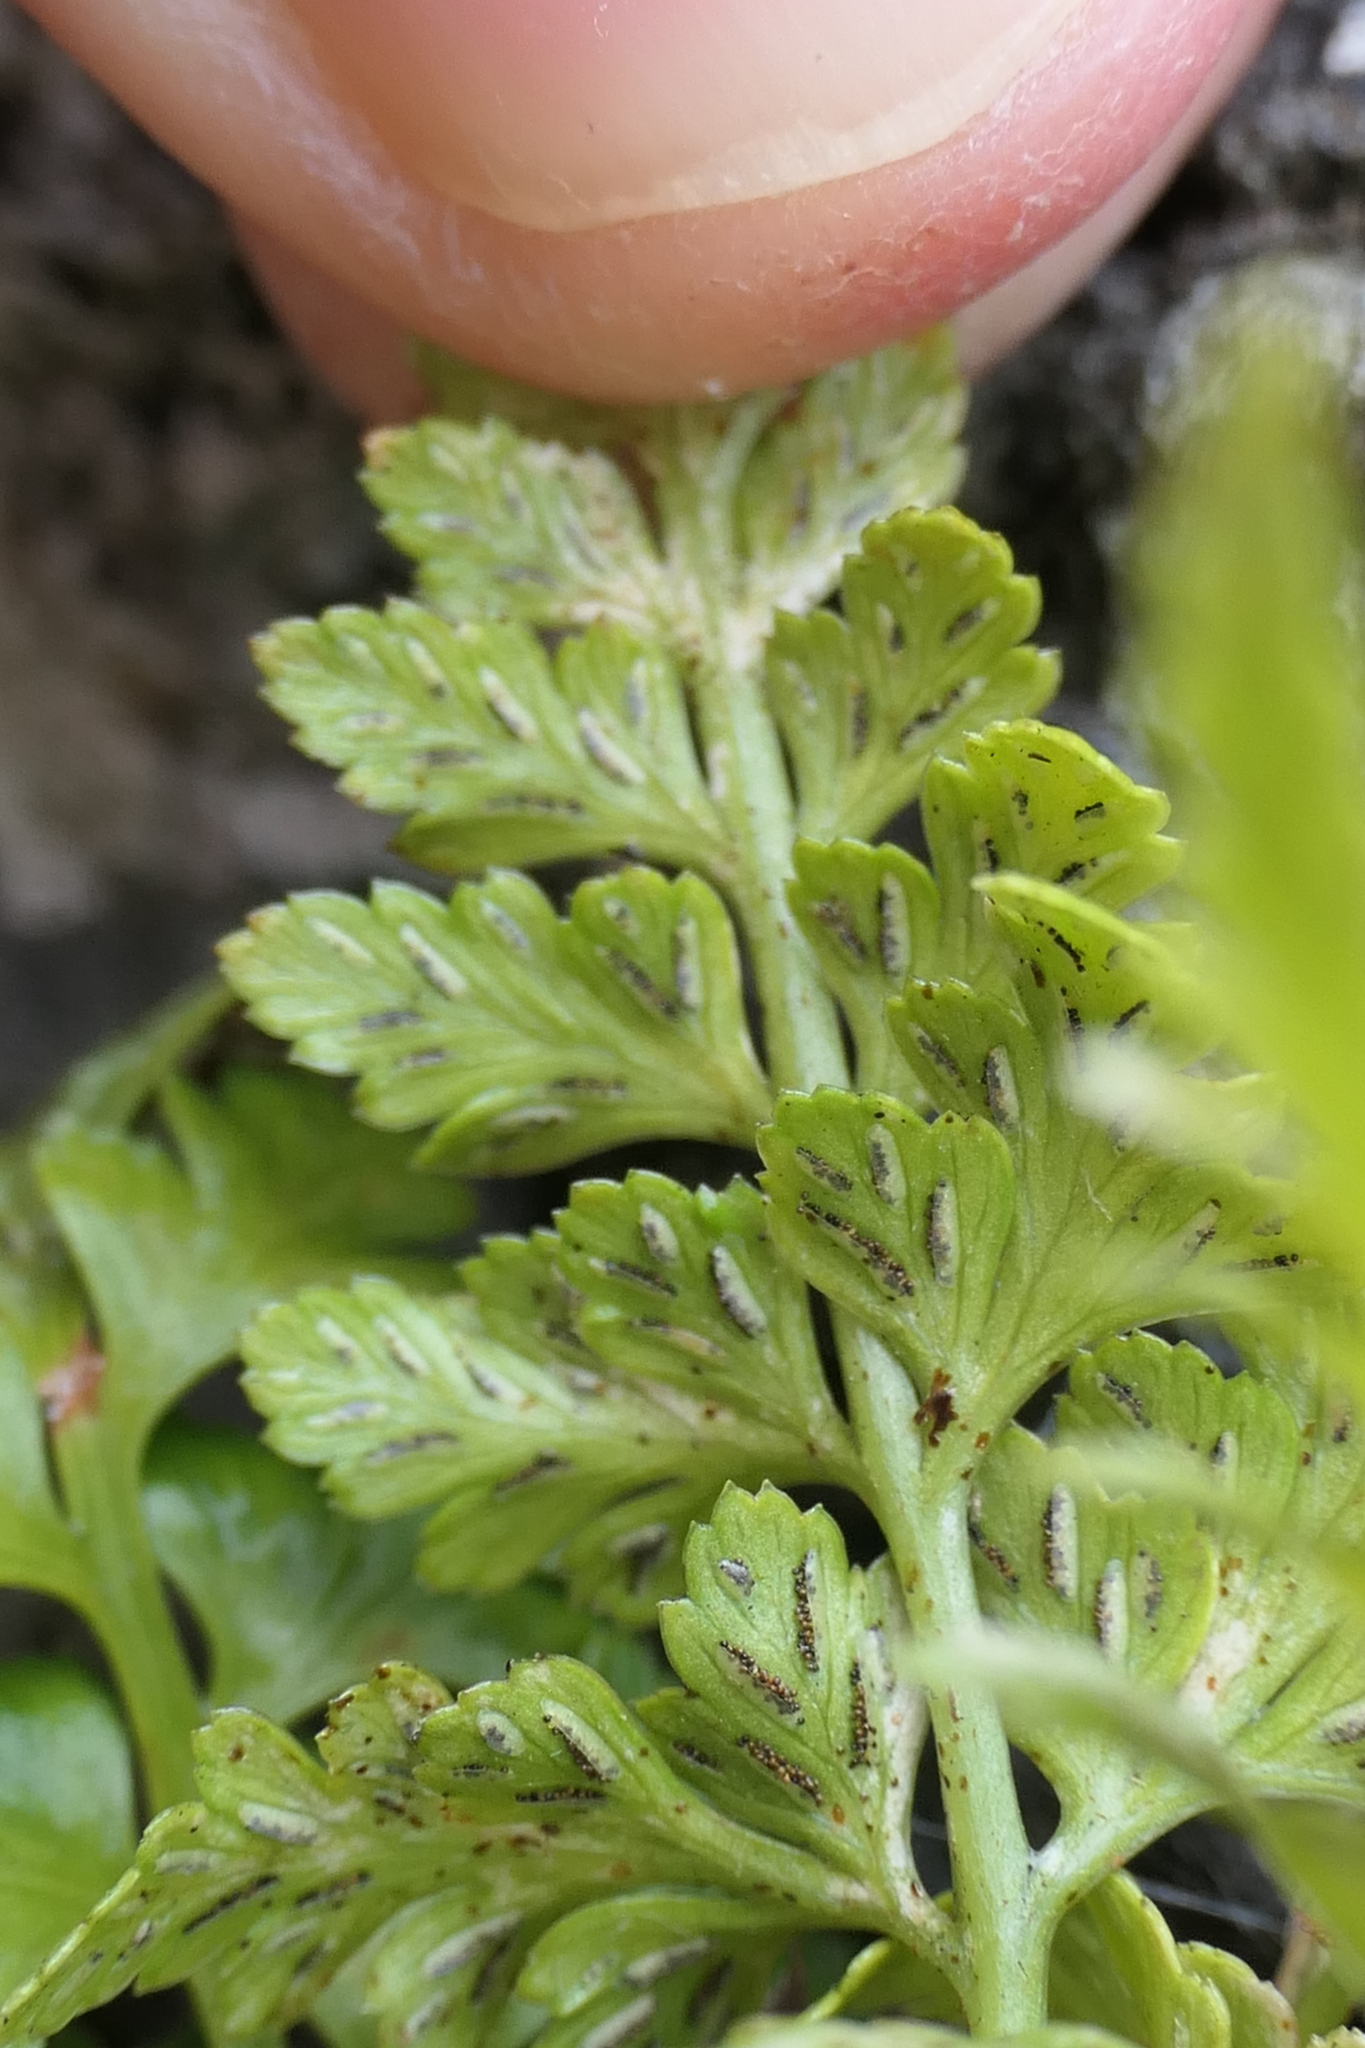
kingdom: Plantae
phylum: Tracheophyta
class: Polypodiopsida
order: Polypodiales
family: Aspleniaceae
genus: Asplenium
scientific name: Asplenium obovatum
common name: Lanceolate spleenwort
